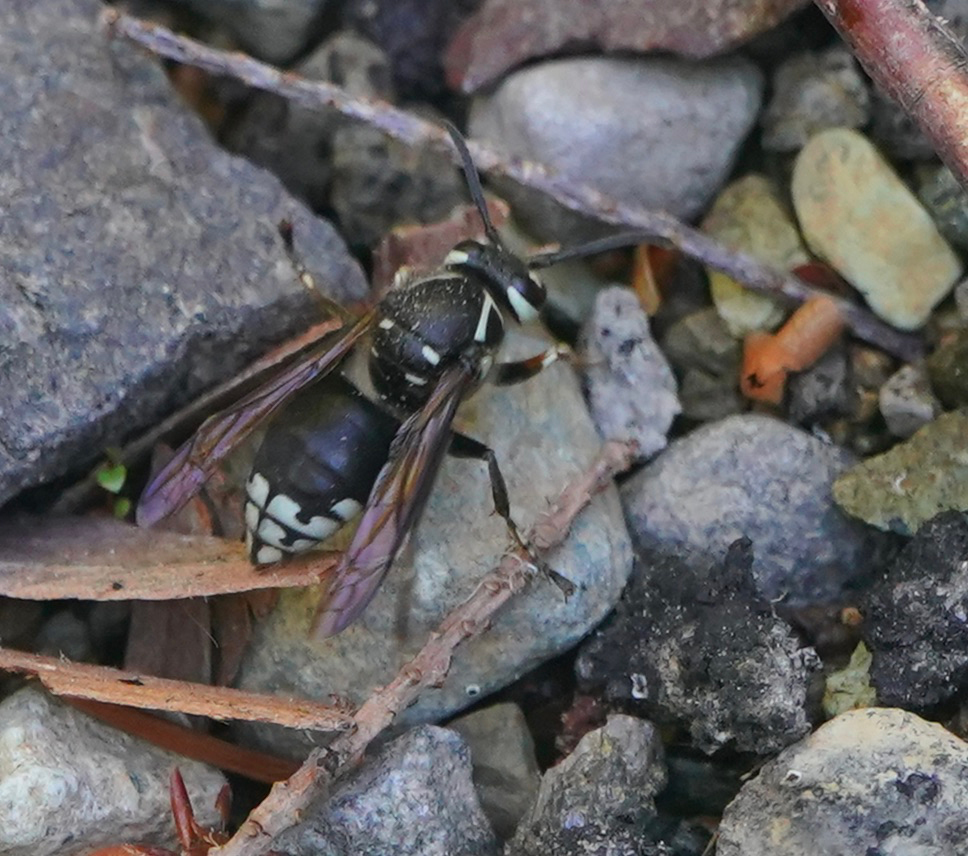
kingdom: Animalia
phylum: Arthropoda
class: Insecta
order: Hymenoptera
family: Vespidae
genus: Dolichovespula
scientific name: Dolichovespula maculata
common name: Bald-faced hornet
